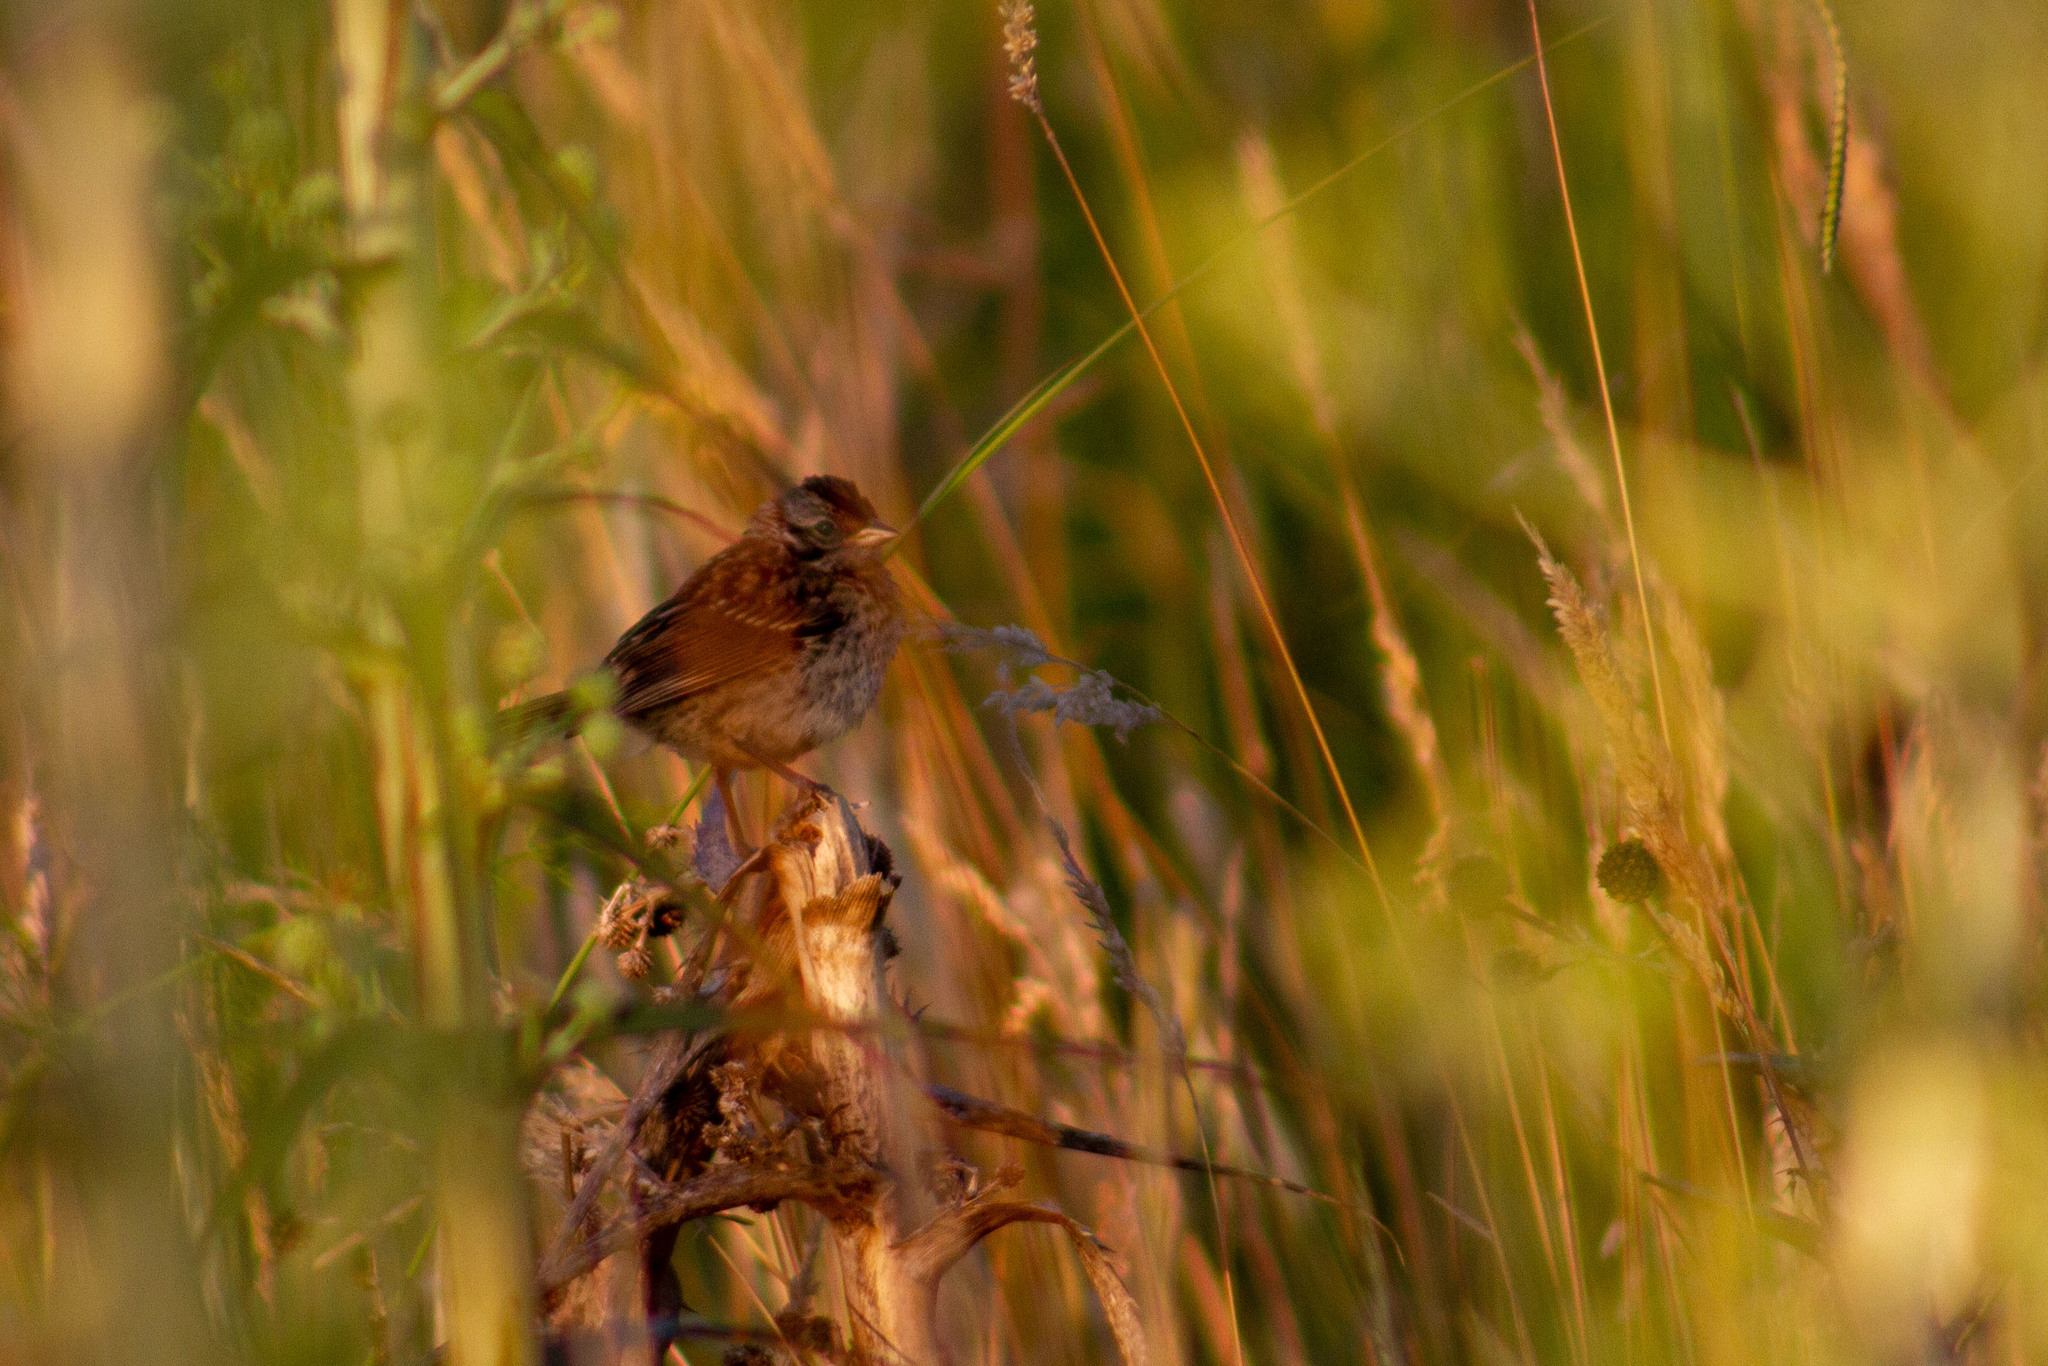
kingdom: Animalia
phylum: Chordata
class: Aves
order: Passeriformes
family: Passerellidae
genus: Zonotrichia
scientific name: Zonotrichia capensis
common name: Rufous-collared sparrow
